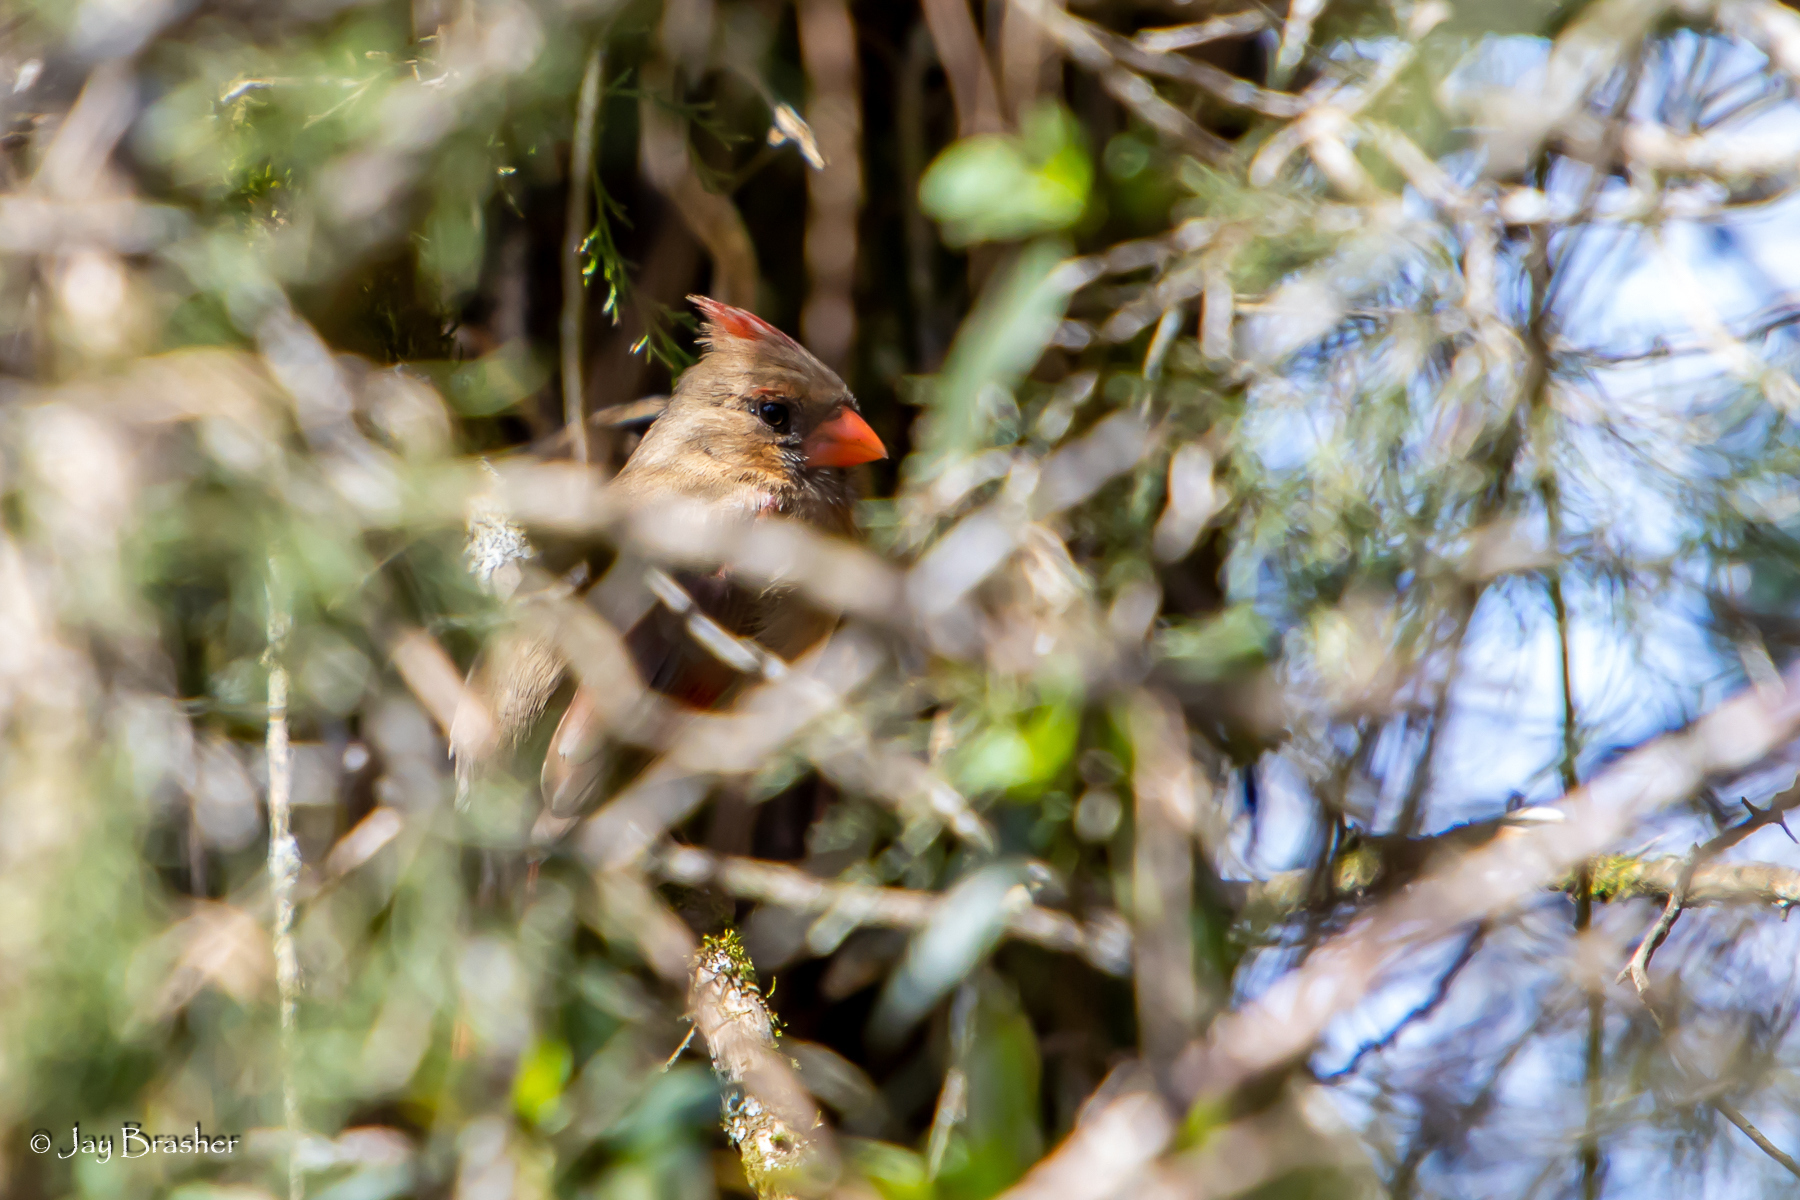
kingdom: Animalia
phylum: Chordata
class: Aves
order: Passeriformes
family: Cardinalidae
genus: Cardinalis
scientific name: Cardinalis cardinalis
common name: Northern cardinal
